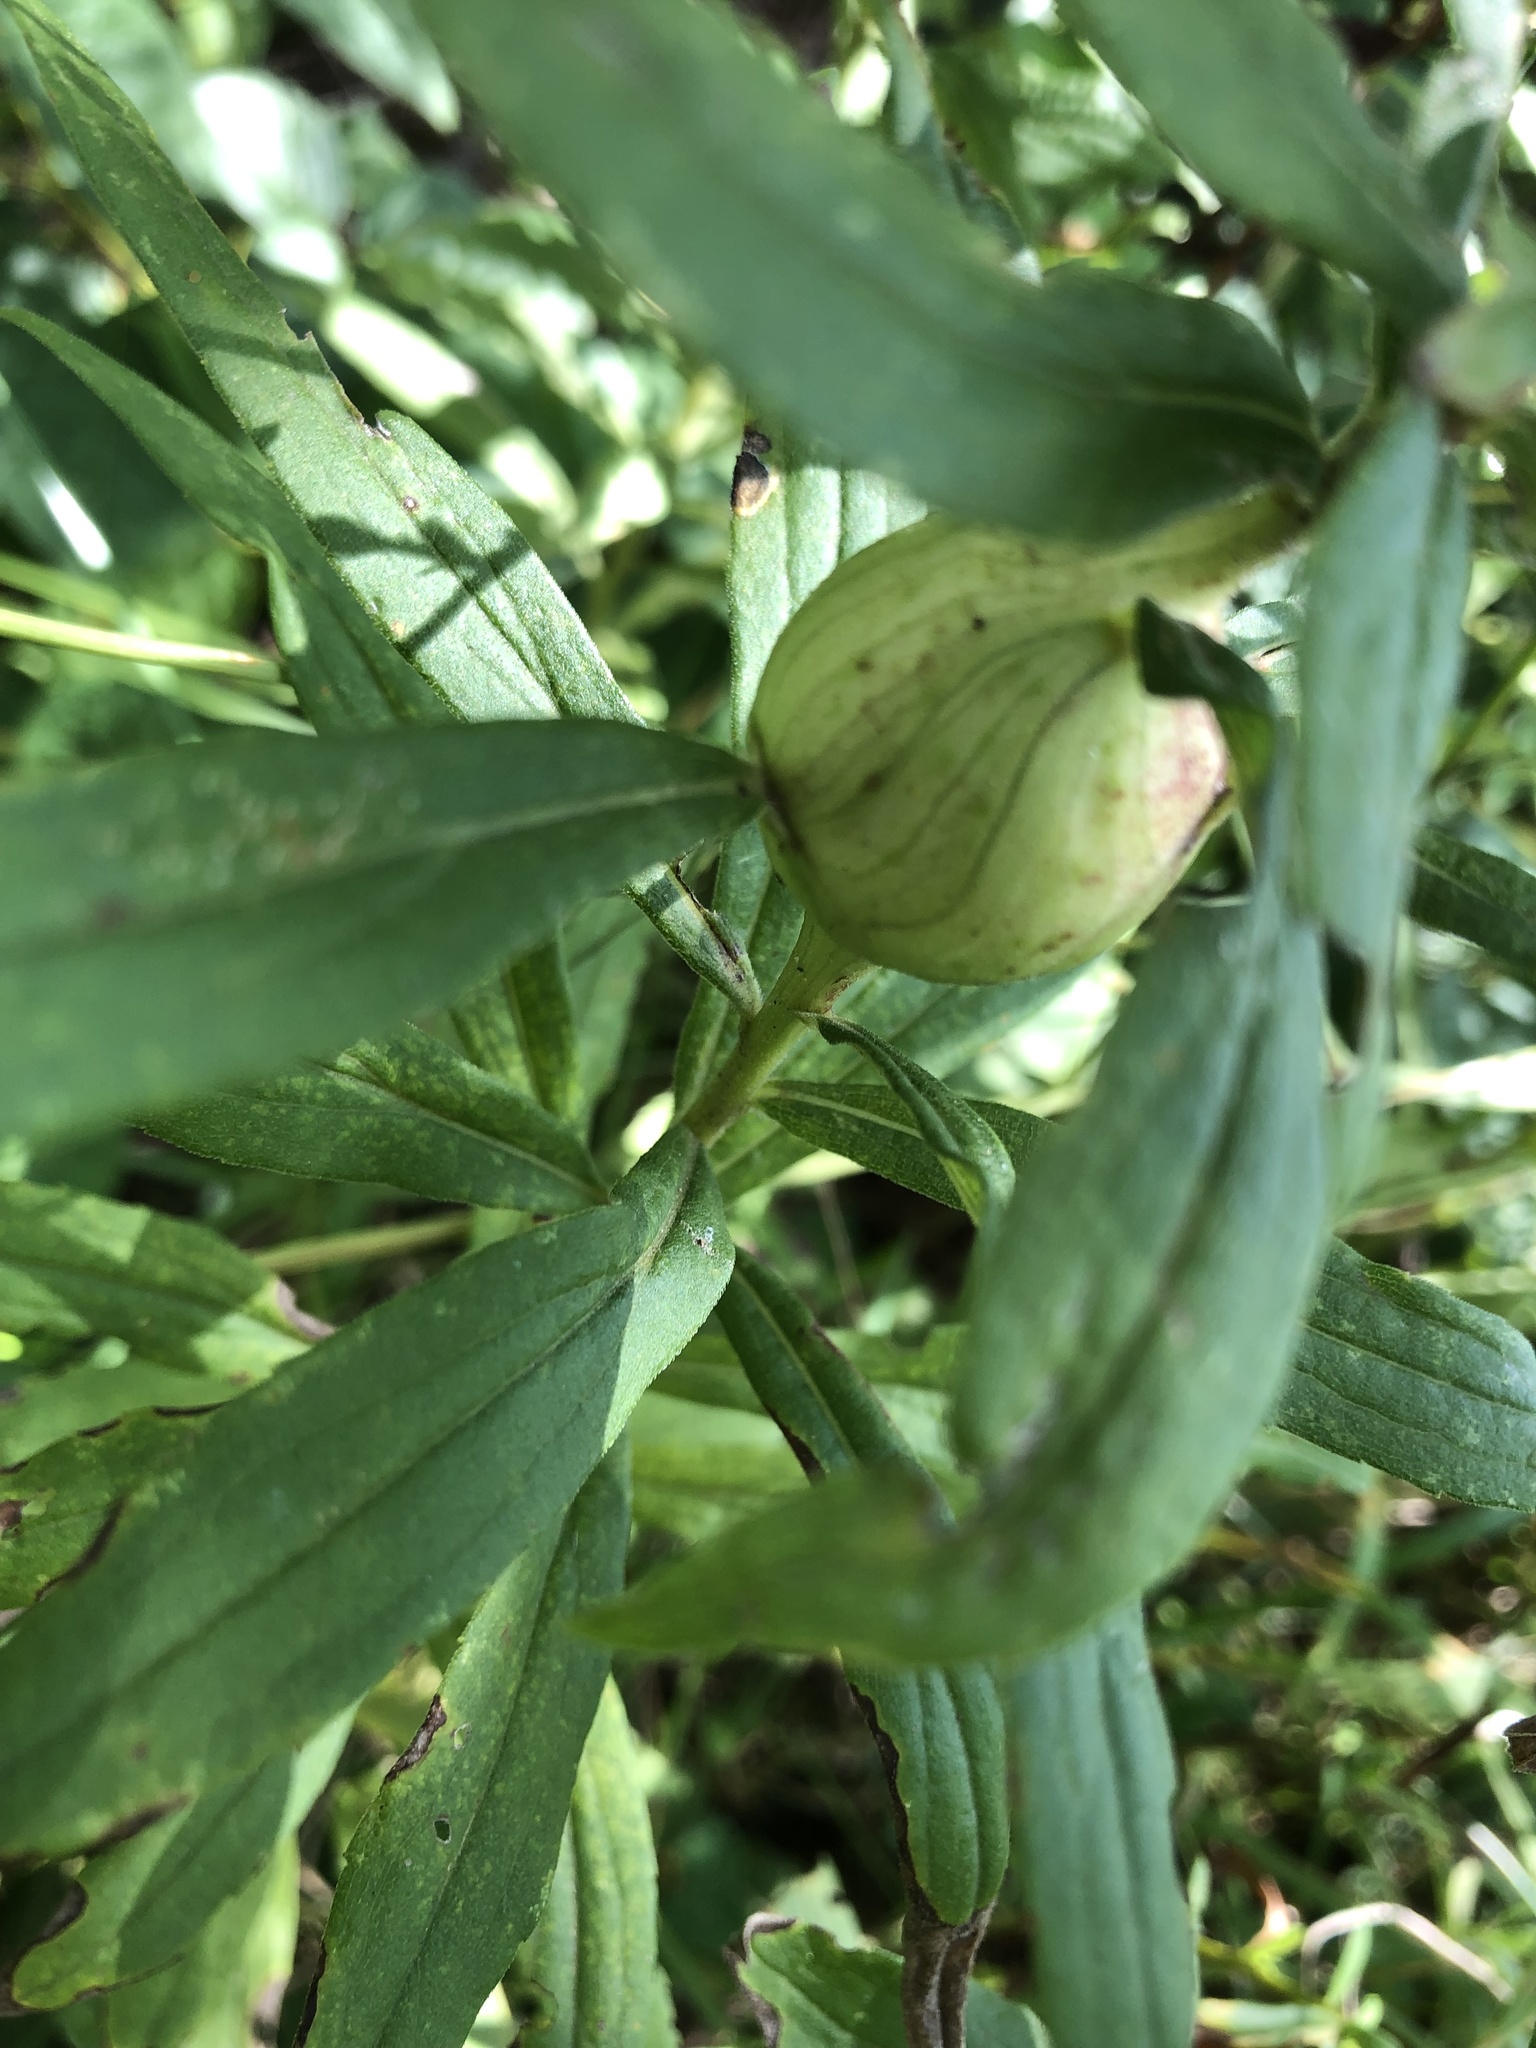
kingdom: Animalia
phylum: Arthropoda
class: Insecta
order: Diptera
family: Tephritidae
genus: Eurosta
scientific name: Eurosta solidaginis
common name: Goldenrod gall fly
